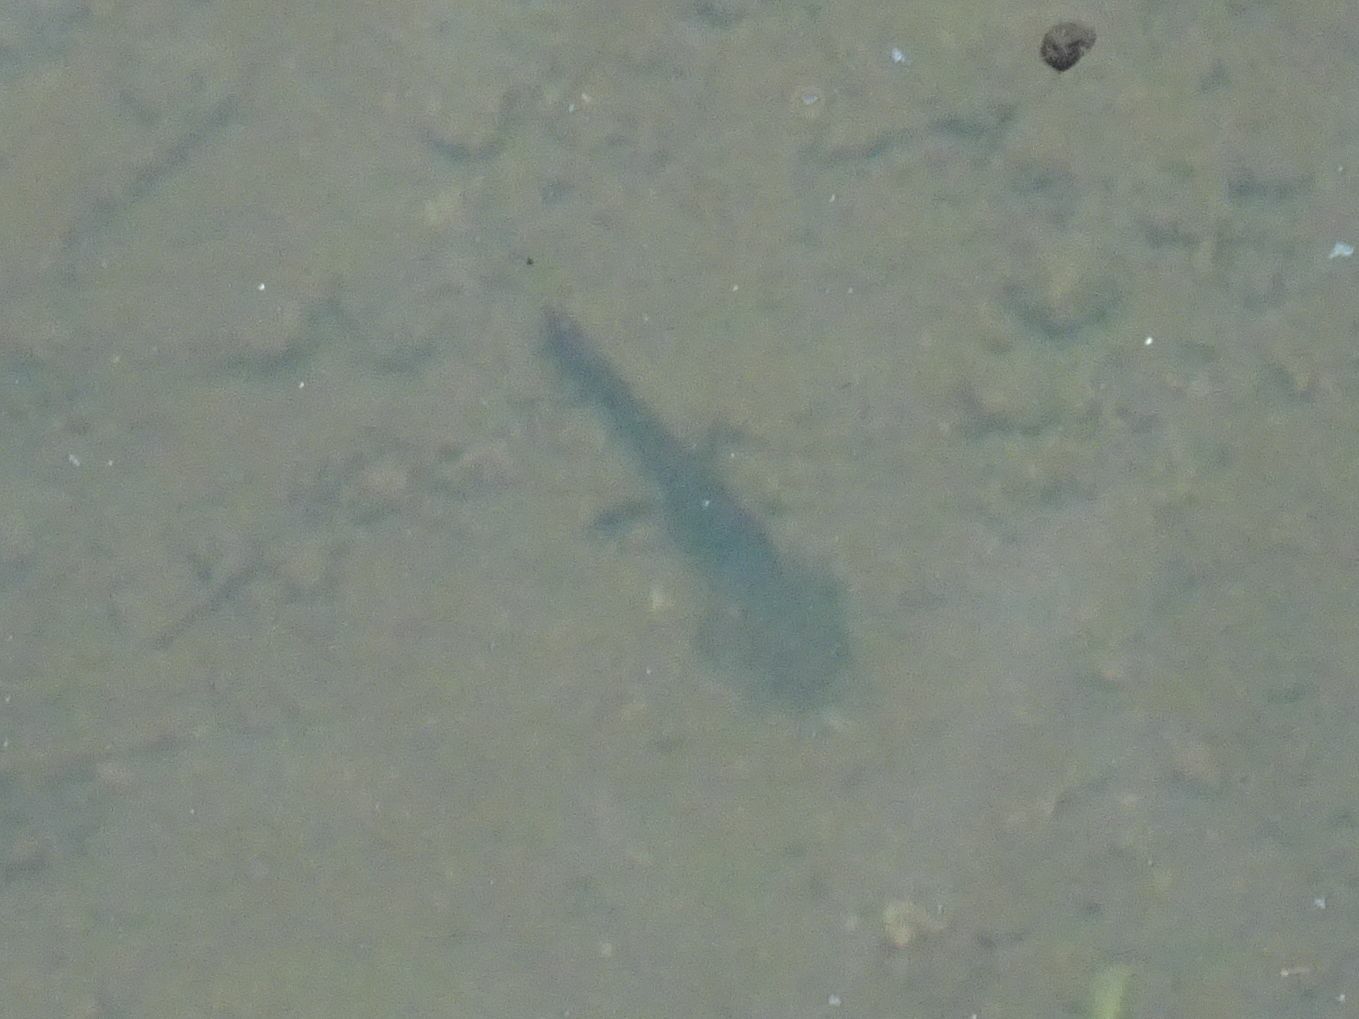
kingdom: Animalia
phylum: Chordata
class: Amphibia
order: Caudata
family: Salamandridae
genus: Salamandra
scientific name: Salamandra salamandra
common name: Fire salamander
